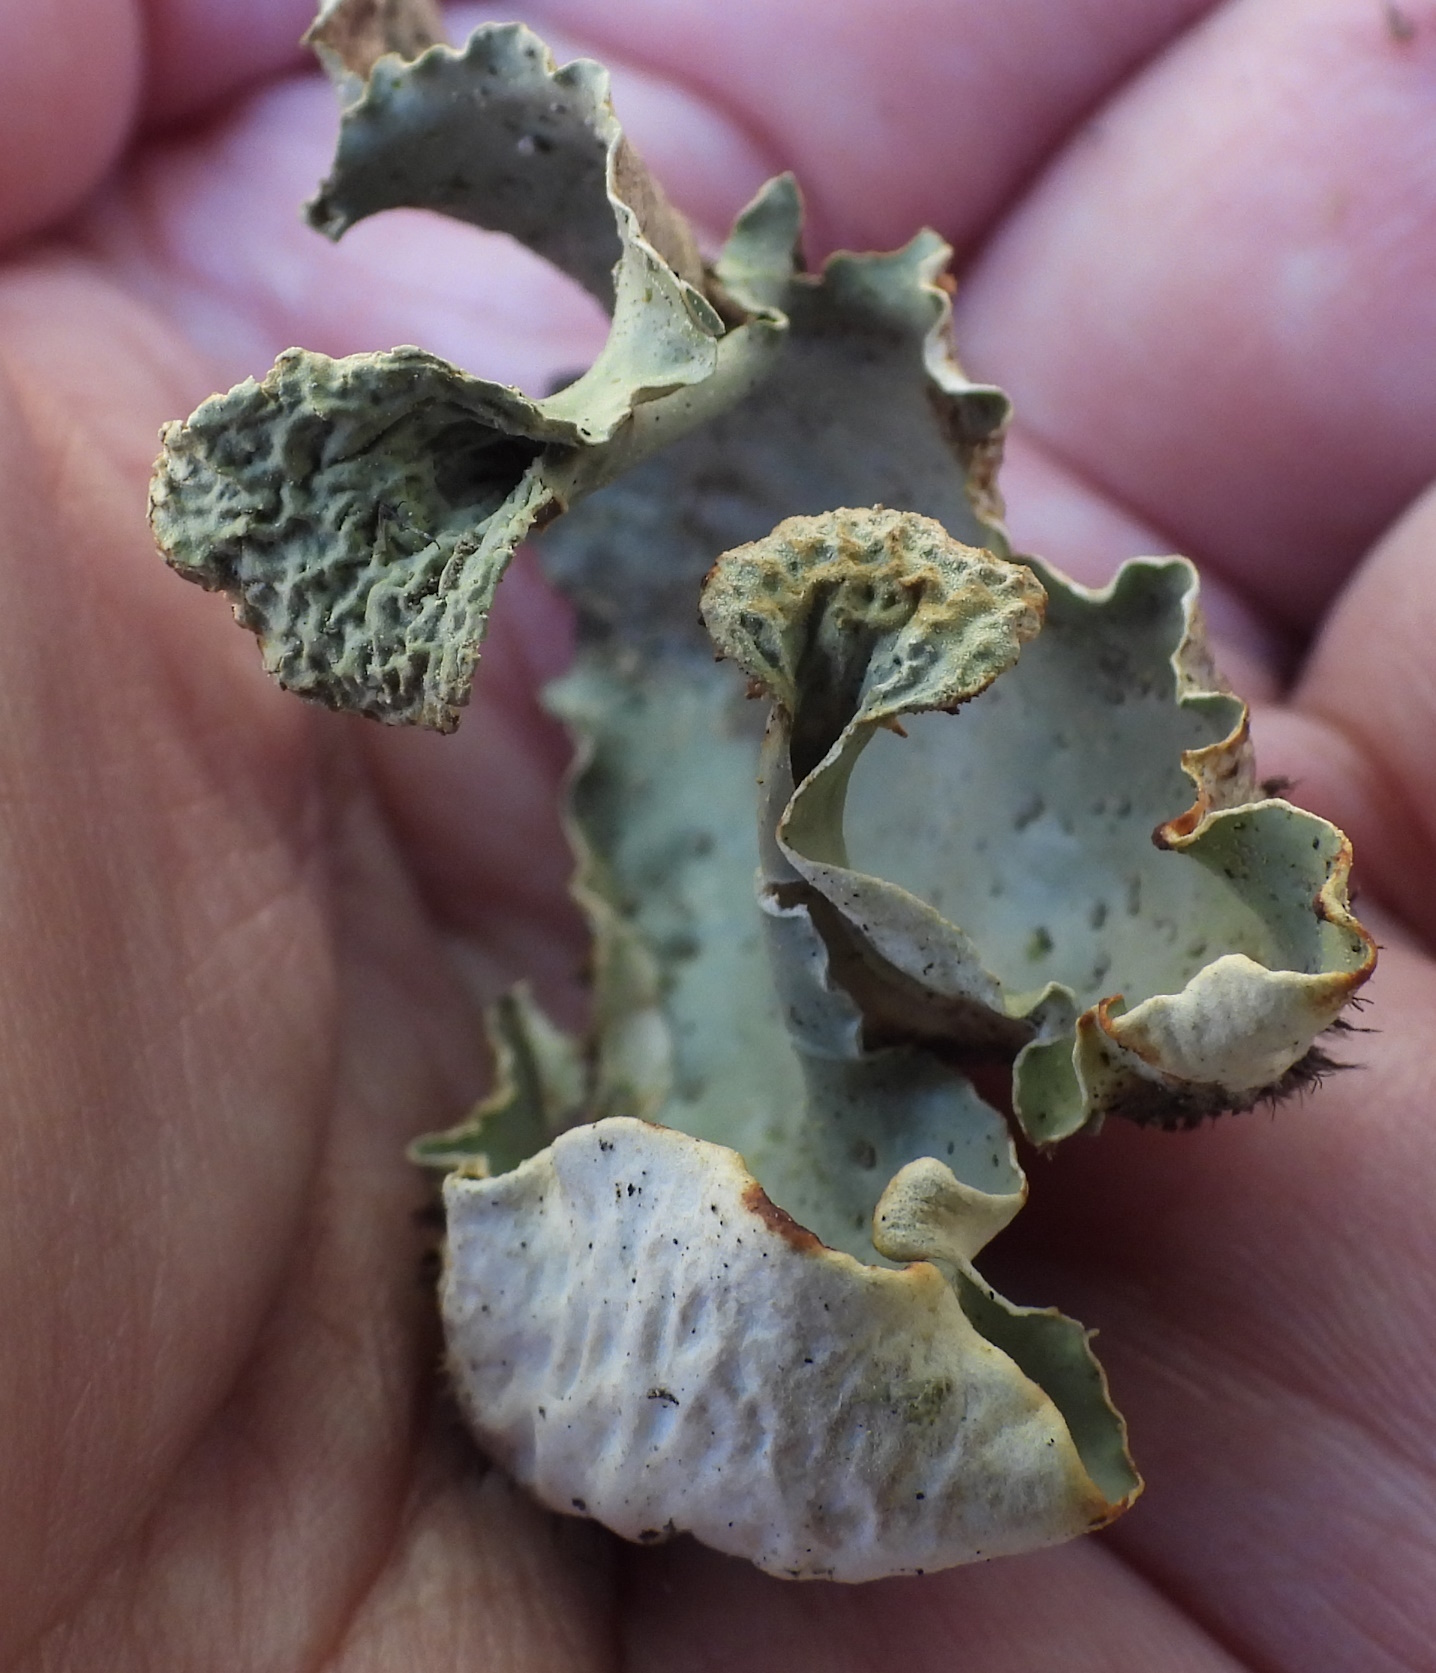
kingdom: Fungi
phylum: Ascomycota
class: Lecanoromycetes
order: Peltigerales
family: Peltigeraceae
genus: Peltigera
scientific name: Peltigera aphthosa
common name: Common freckle pelt lichen
